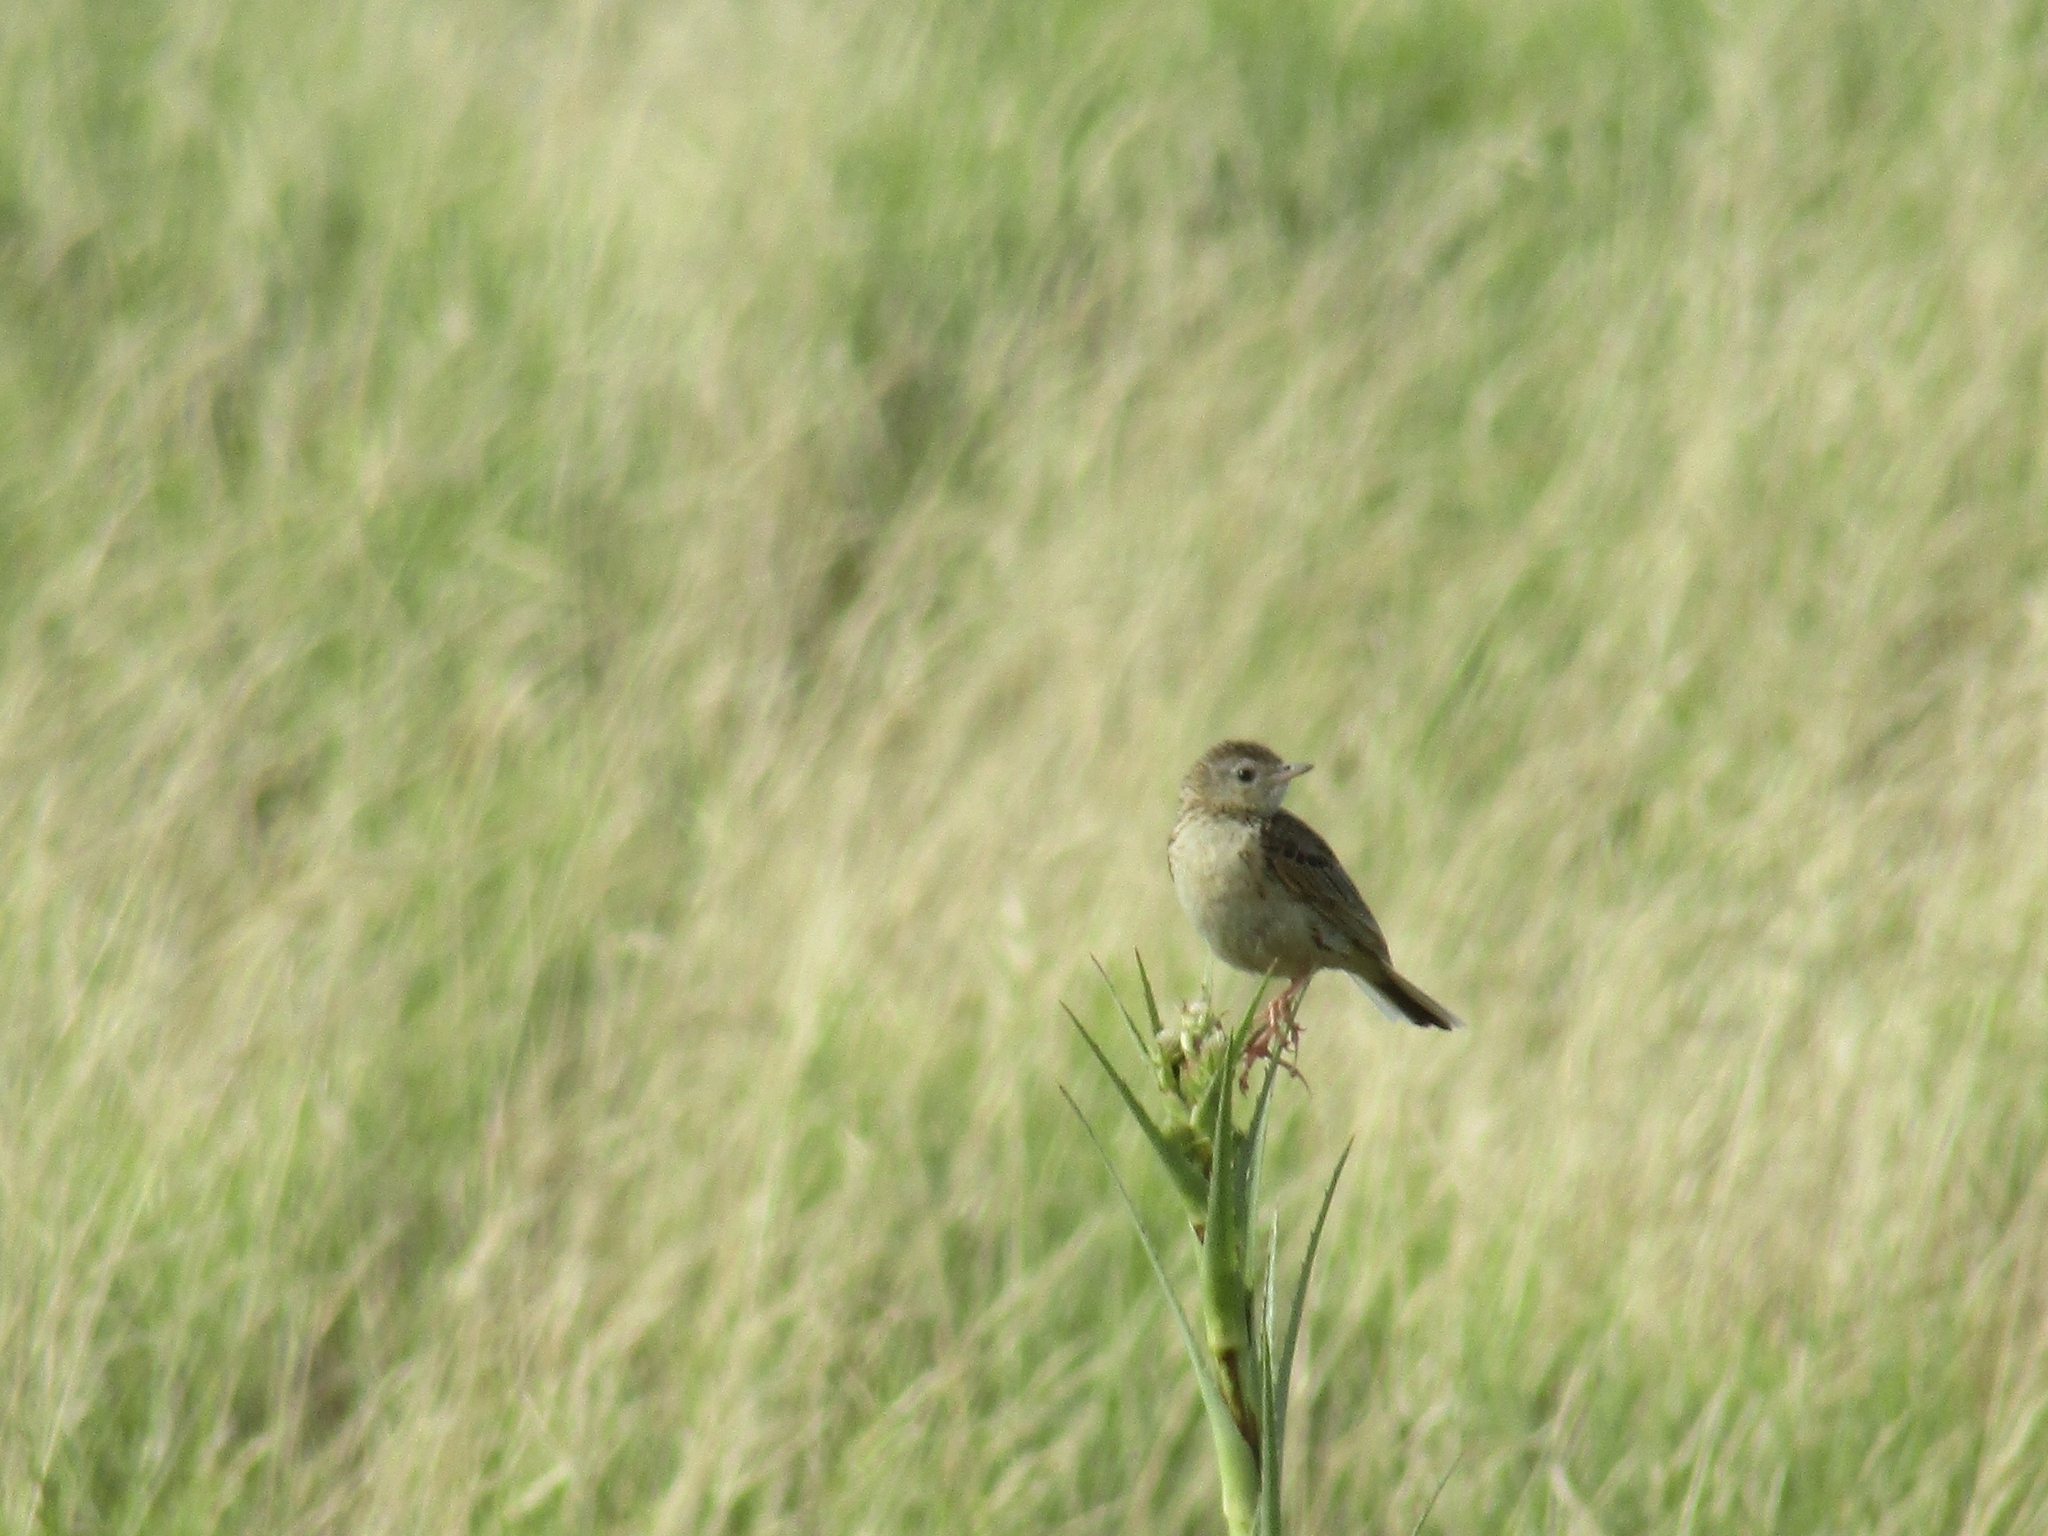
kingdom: Animalia
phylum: Chordata
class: Aves
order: Passeriformes
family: Motacillidae
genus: Anthus
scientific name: Anthus hellmayri
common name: Hellmayr's pipit
